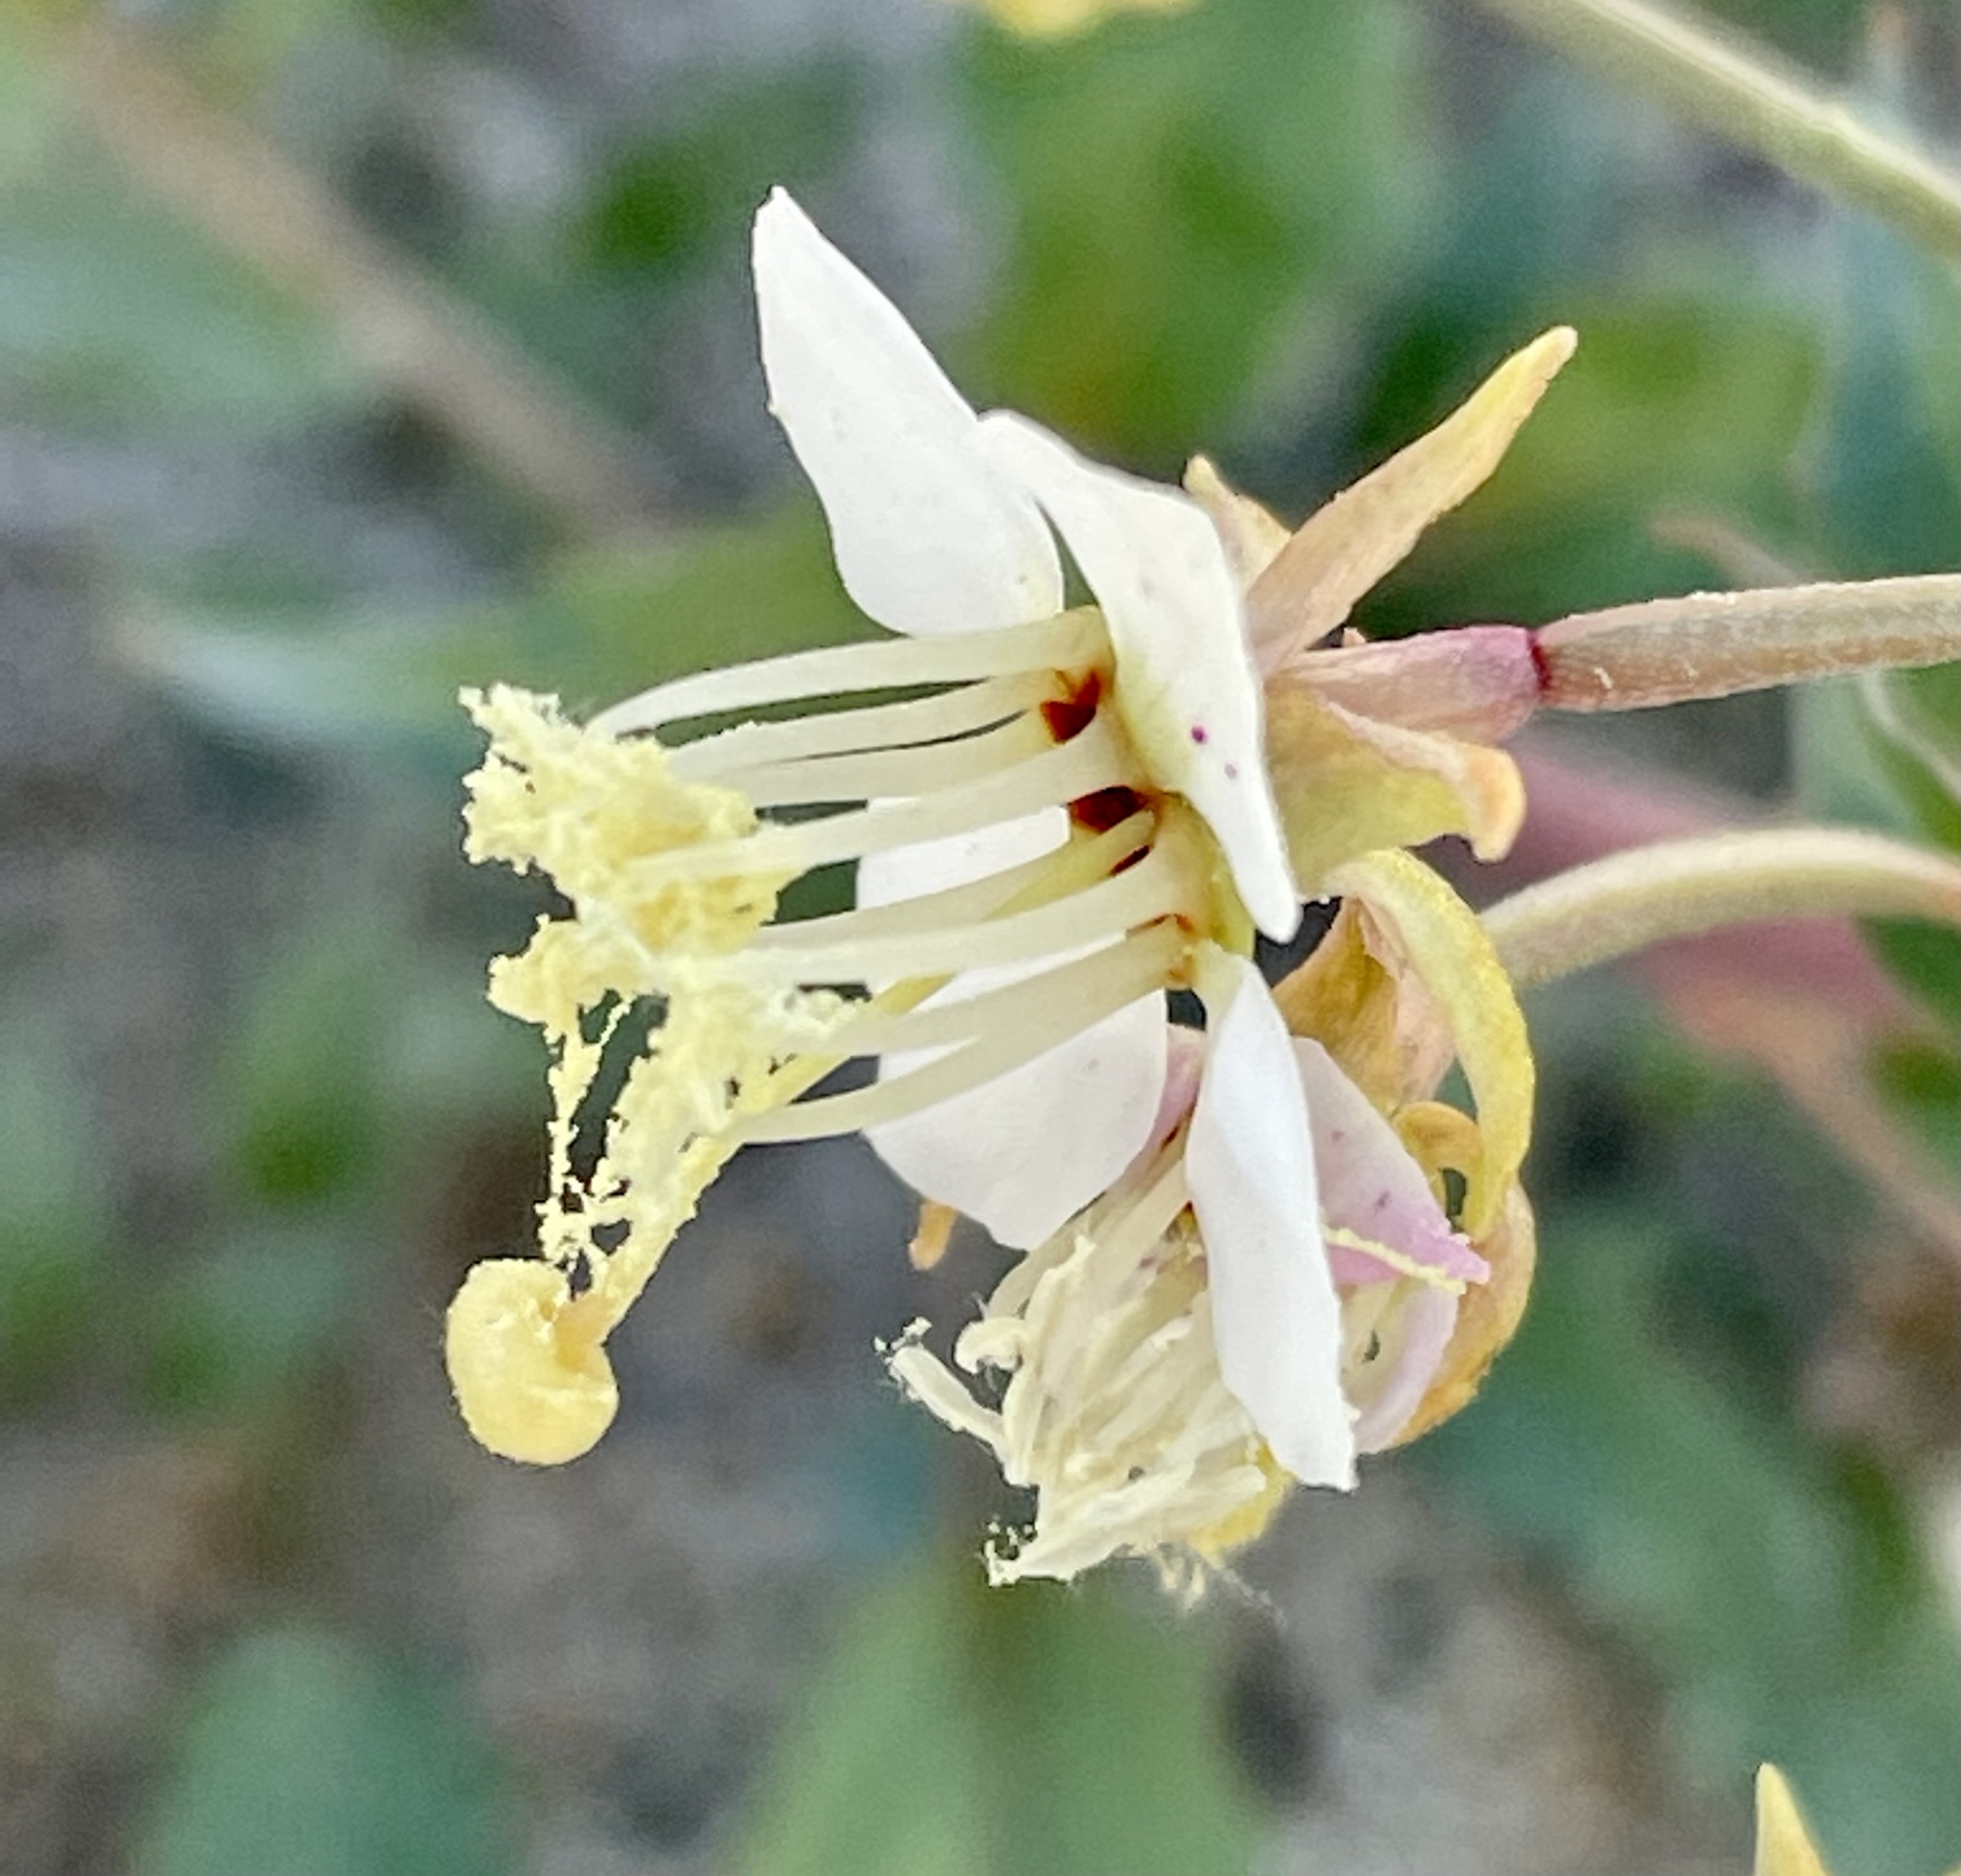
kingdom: Plantae
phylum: Tracheophyta
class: Magnoliopsida
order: Myrtales
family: Onagraceae
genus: Chylismia
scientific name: Chylismia claviformis
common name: Browneyes
